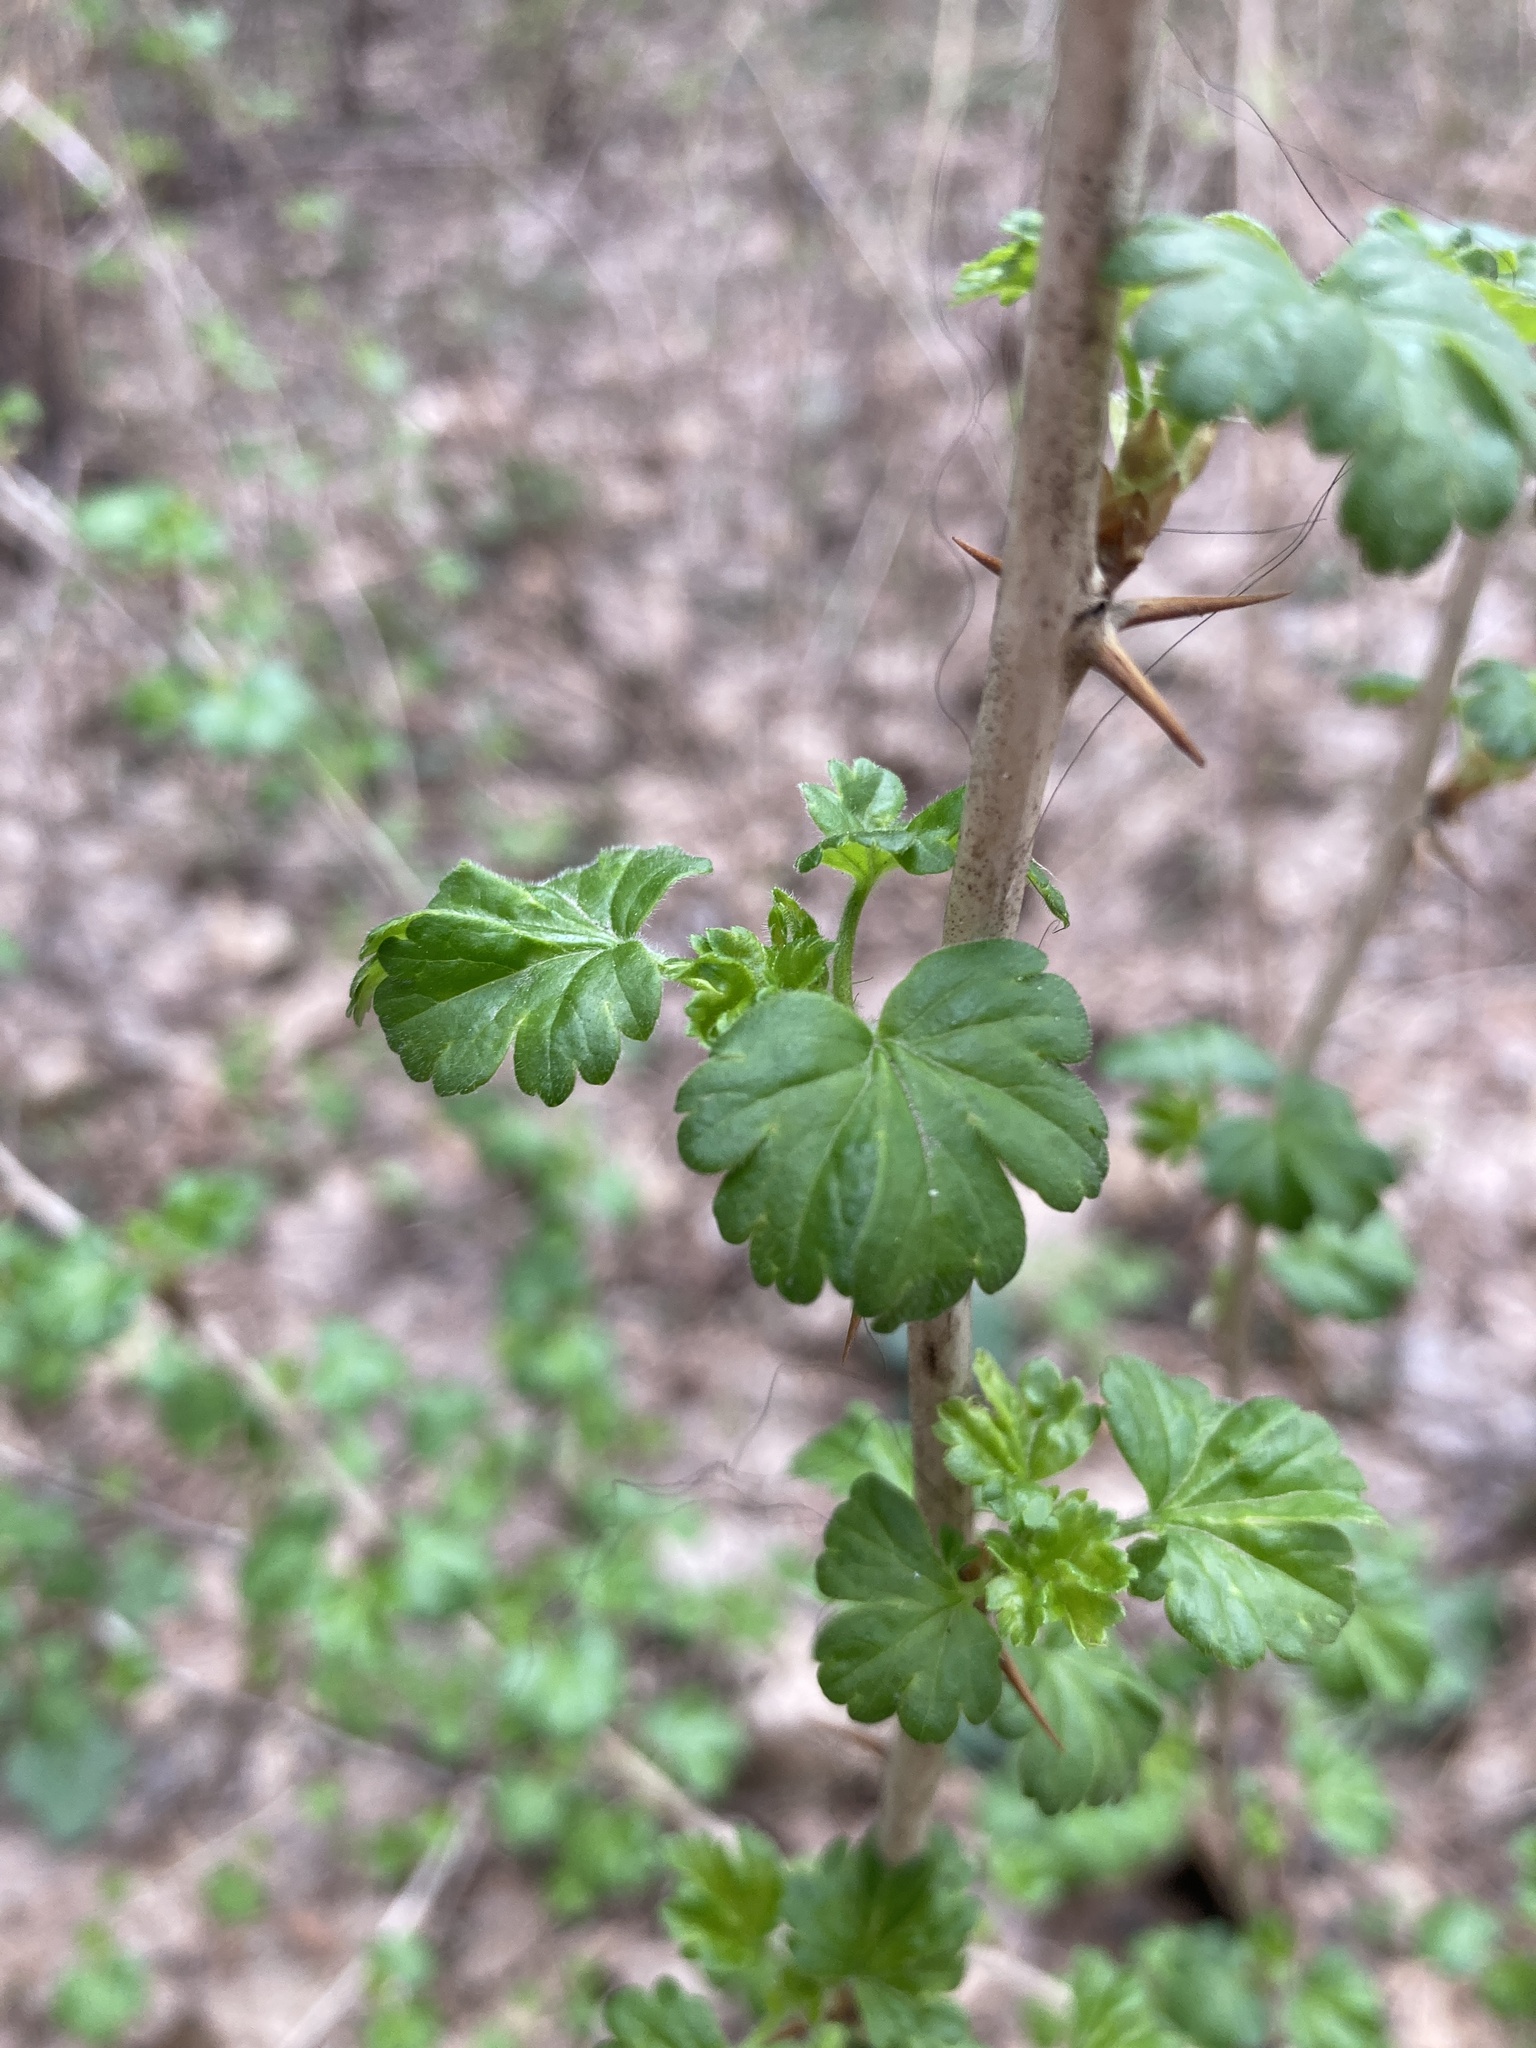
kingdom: Plantae
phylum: Tracheophyta
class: Magnoliopsida
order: Saxifragales
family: Grossulariaceae
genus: Ribes
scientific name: Ribes uva-crispa
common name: Gooseberry
